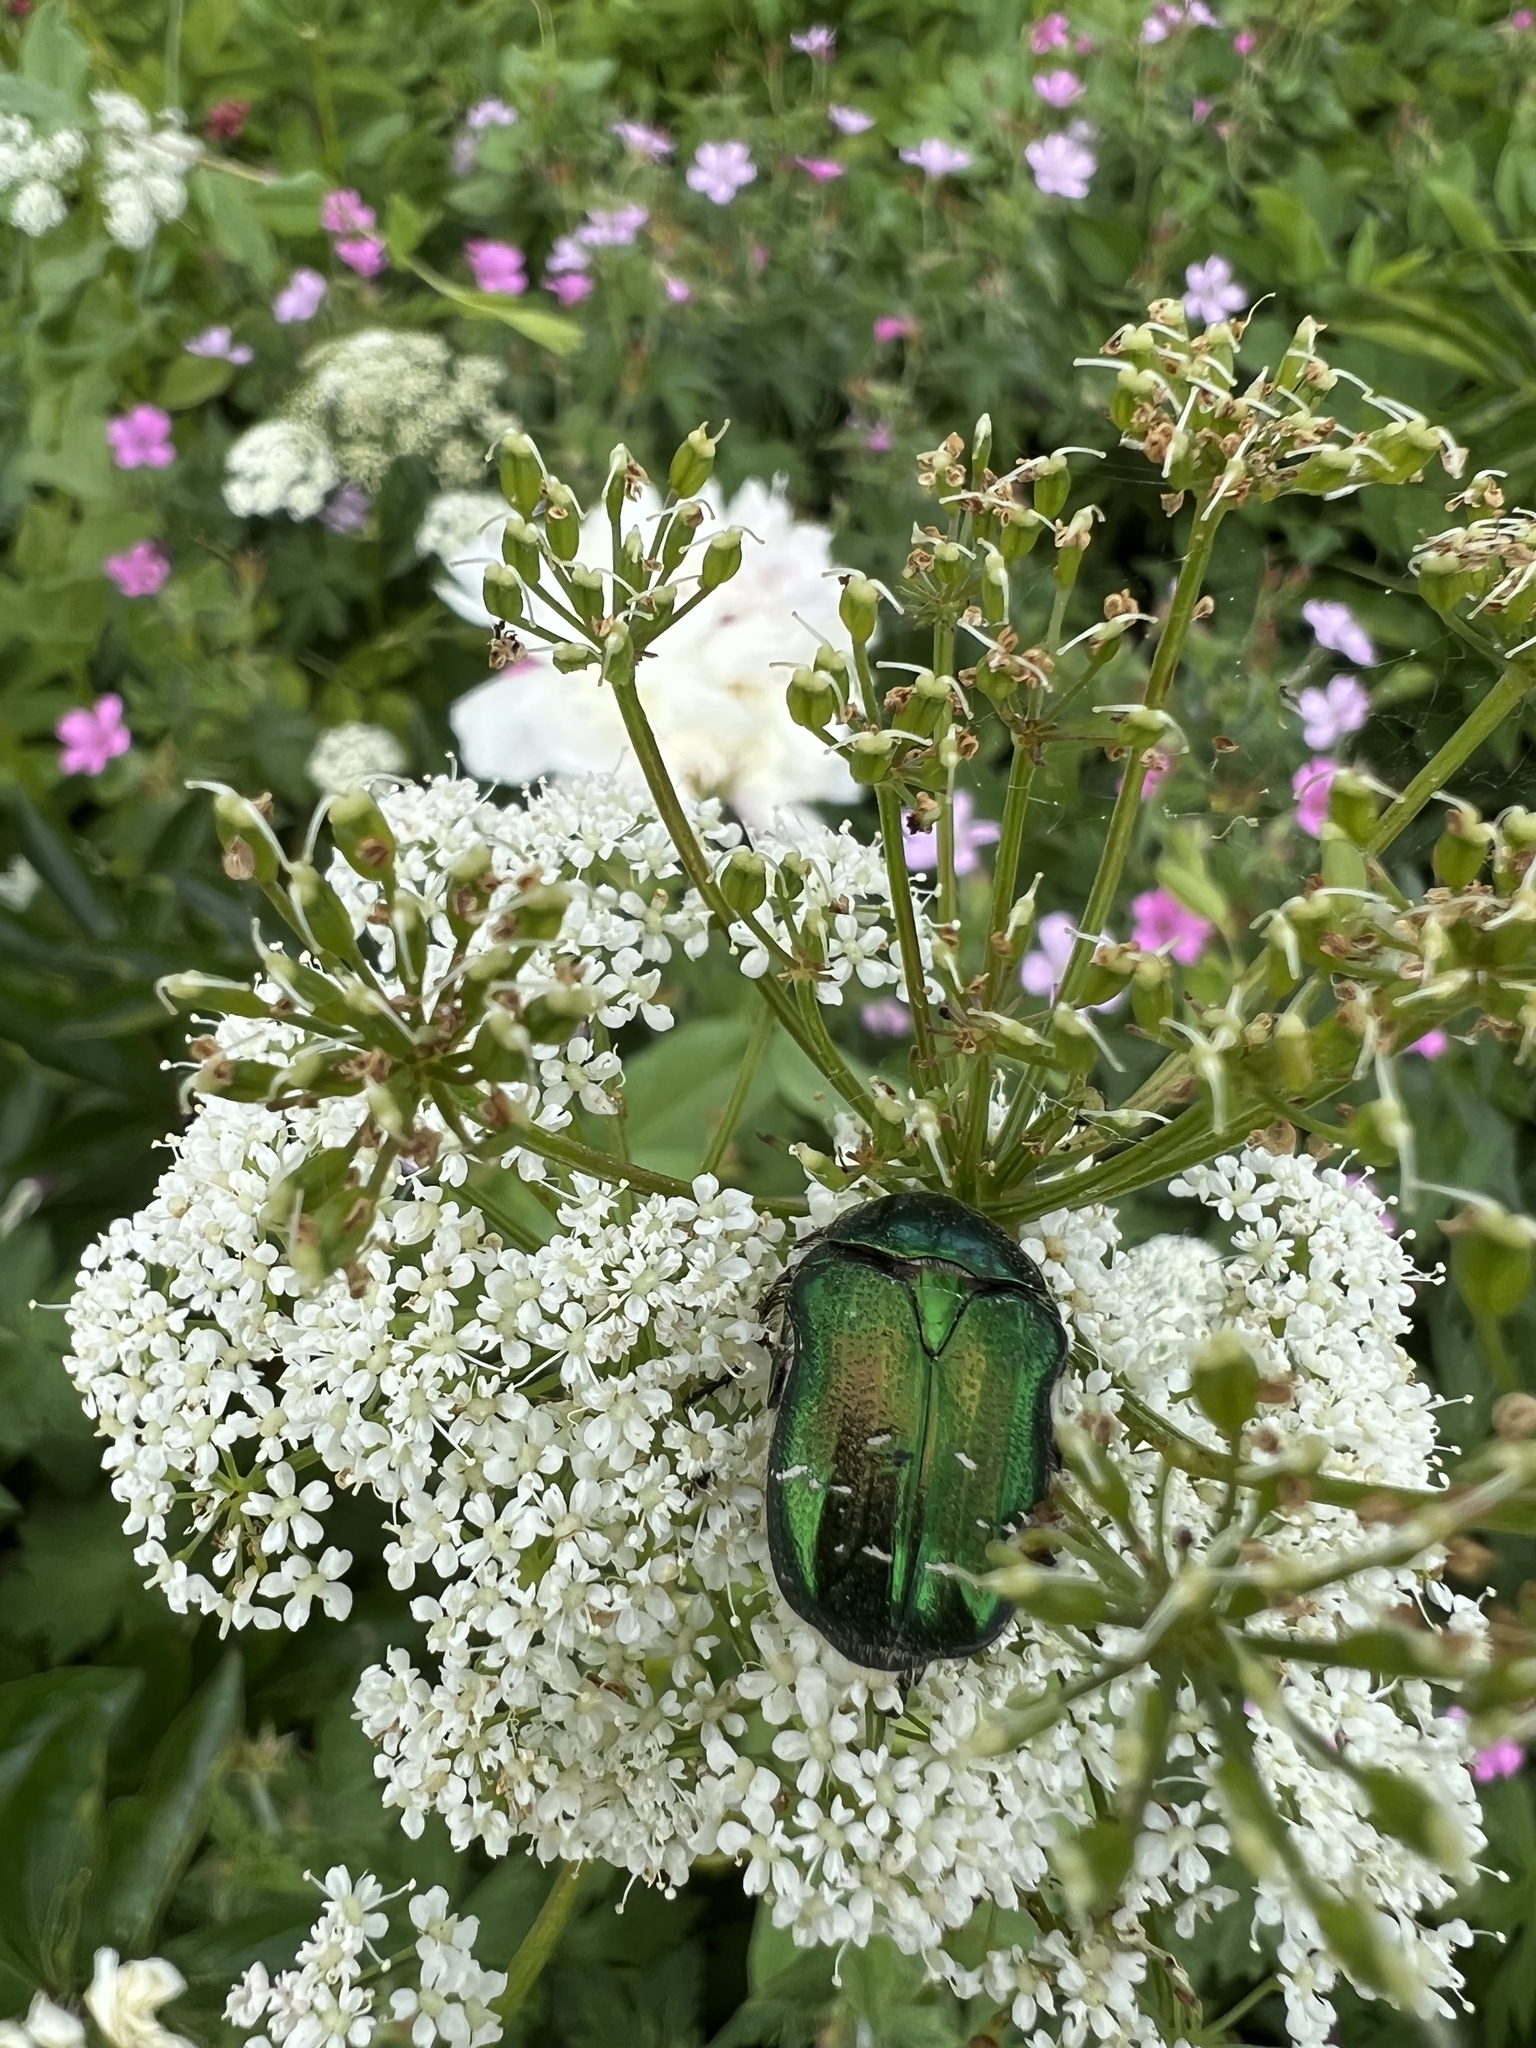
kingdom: Animalia
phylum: Arthropoda
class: Insecta
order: Coleoptera
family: Scarabaeidae
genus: Cetonia
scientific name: Cetonia aurata
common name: Rose chafer
